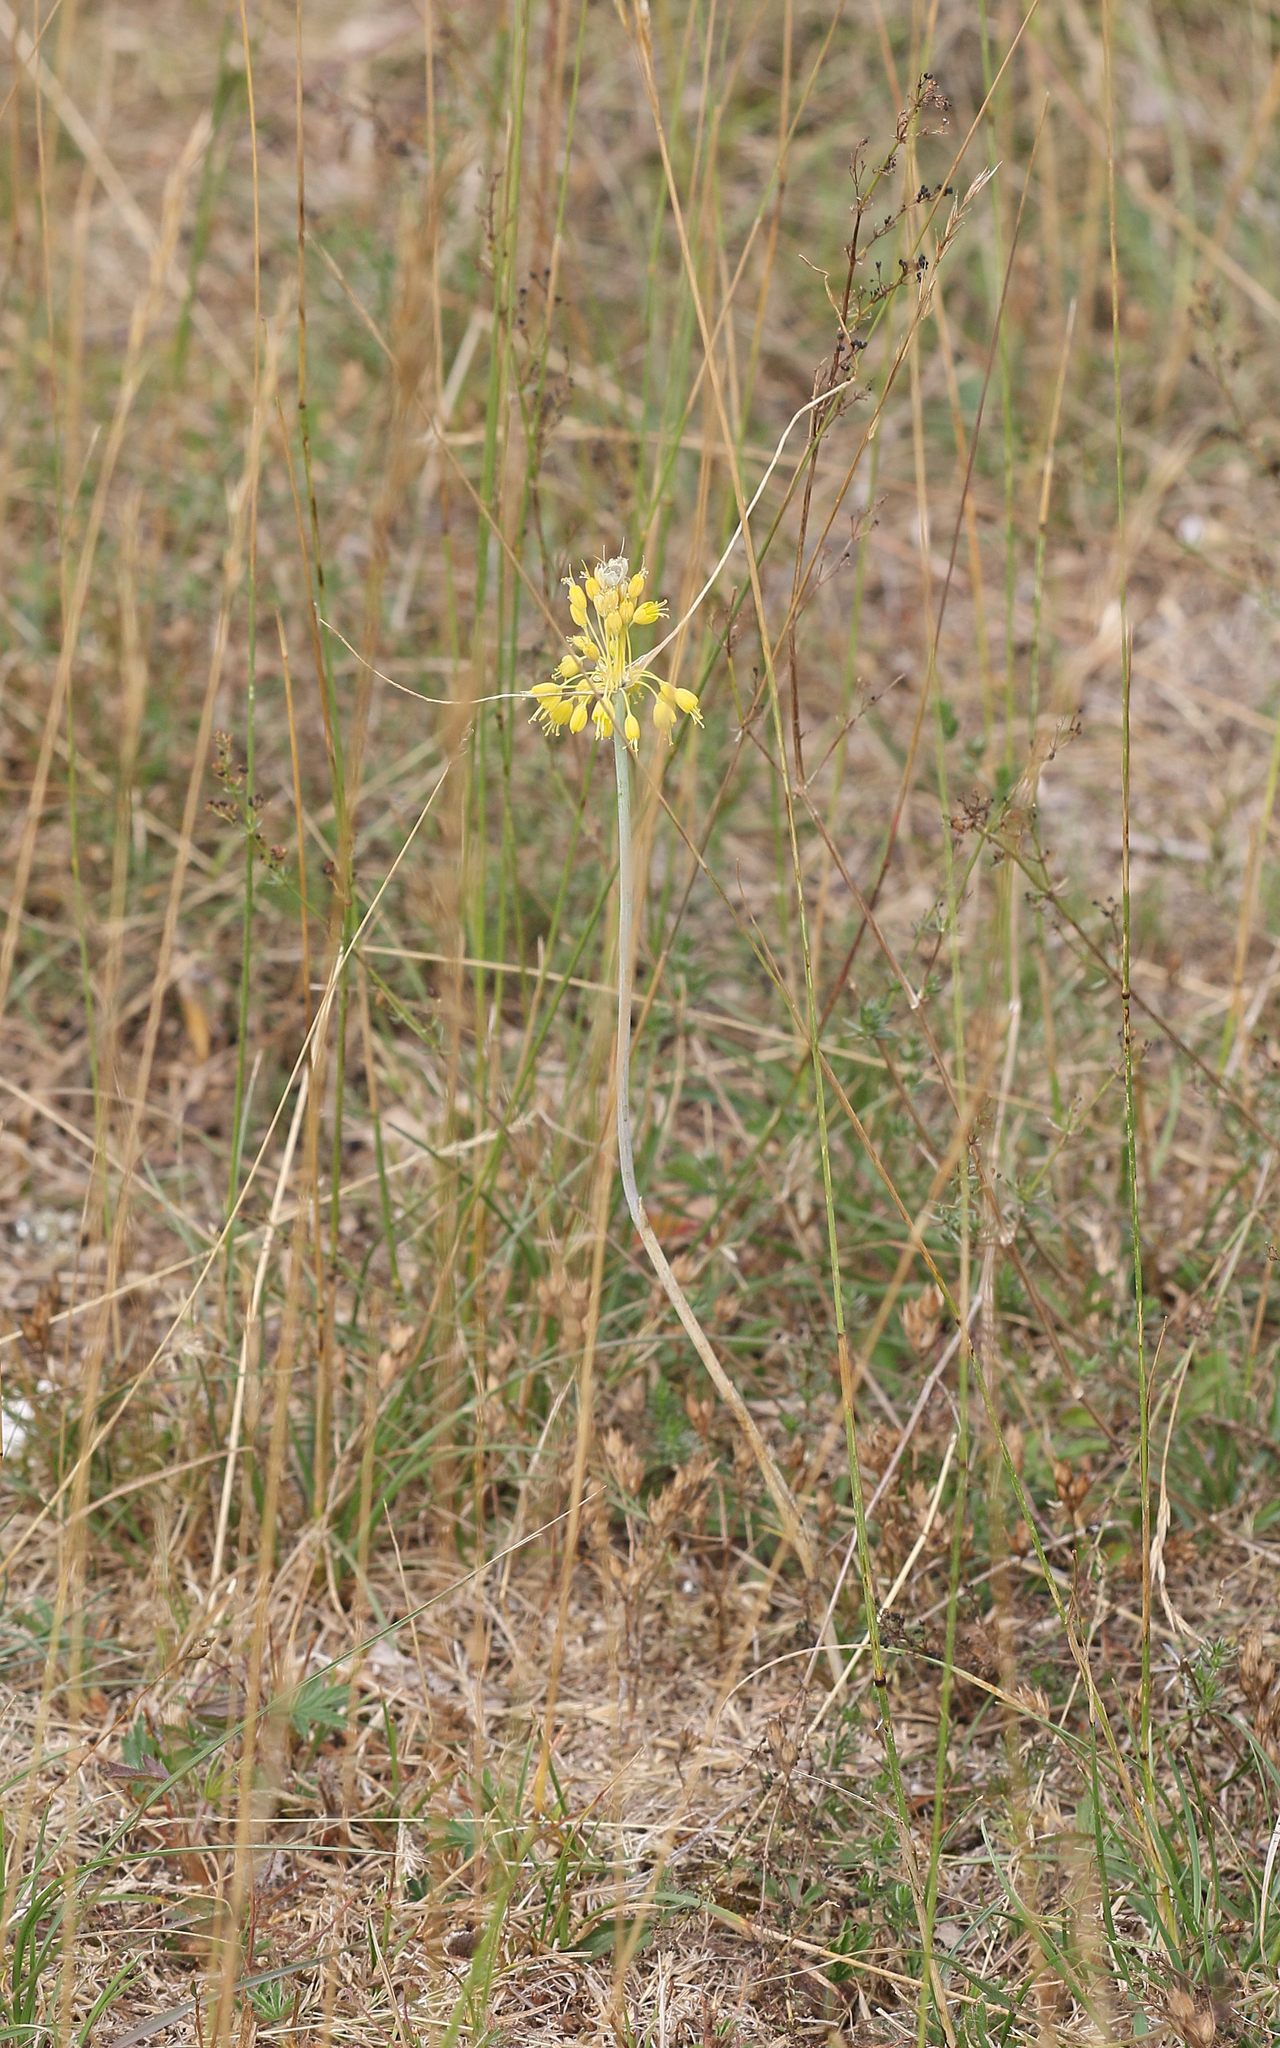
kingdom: Plantae
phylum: Tracheophyta
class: Liliopsida
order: Asparagales
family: Amaryllidaceae
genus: Allium
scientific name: Allium flavum
